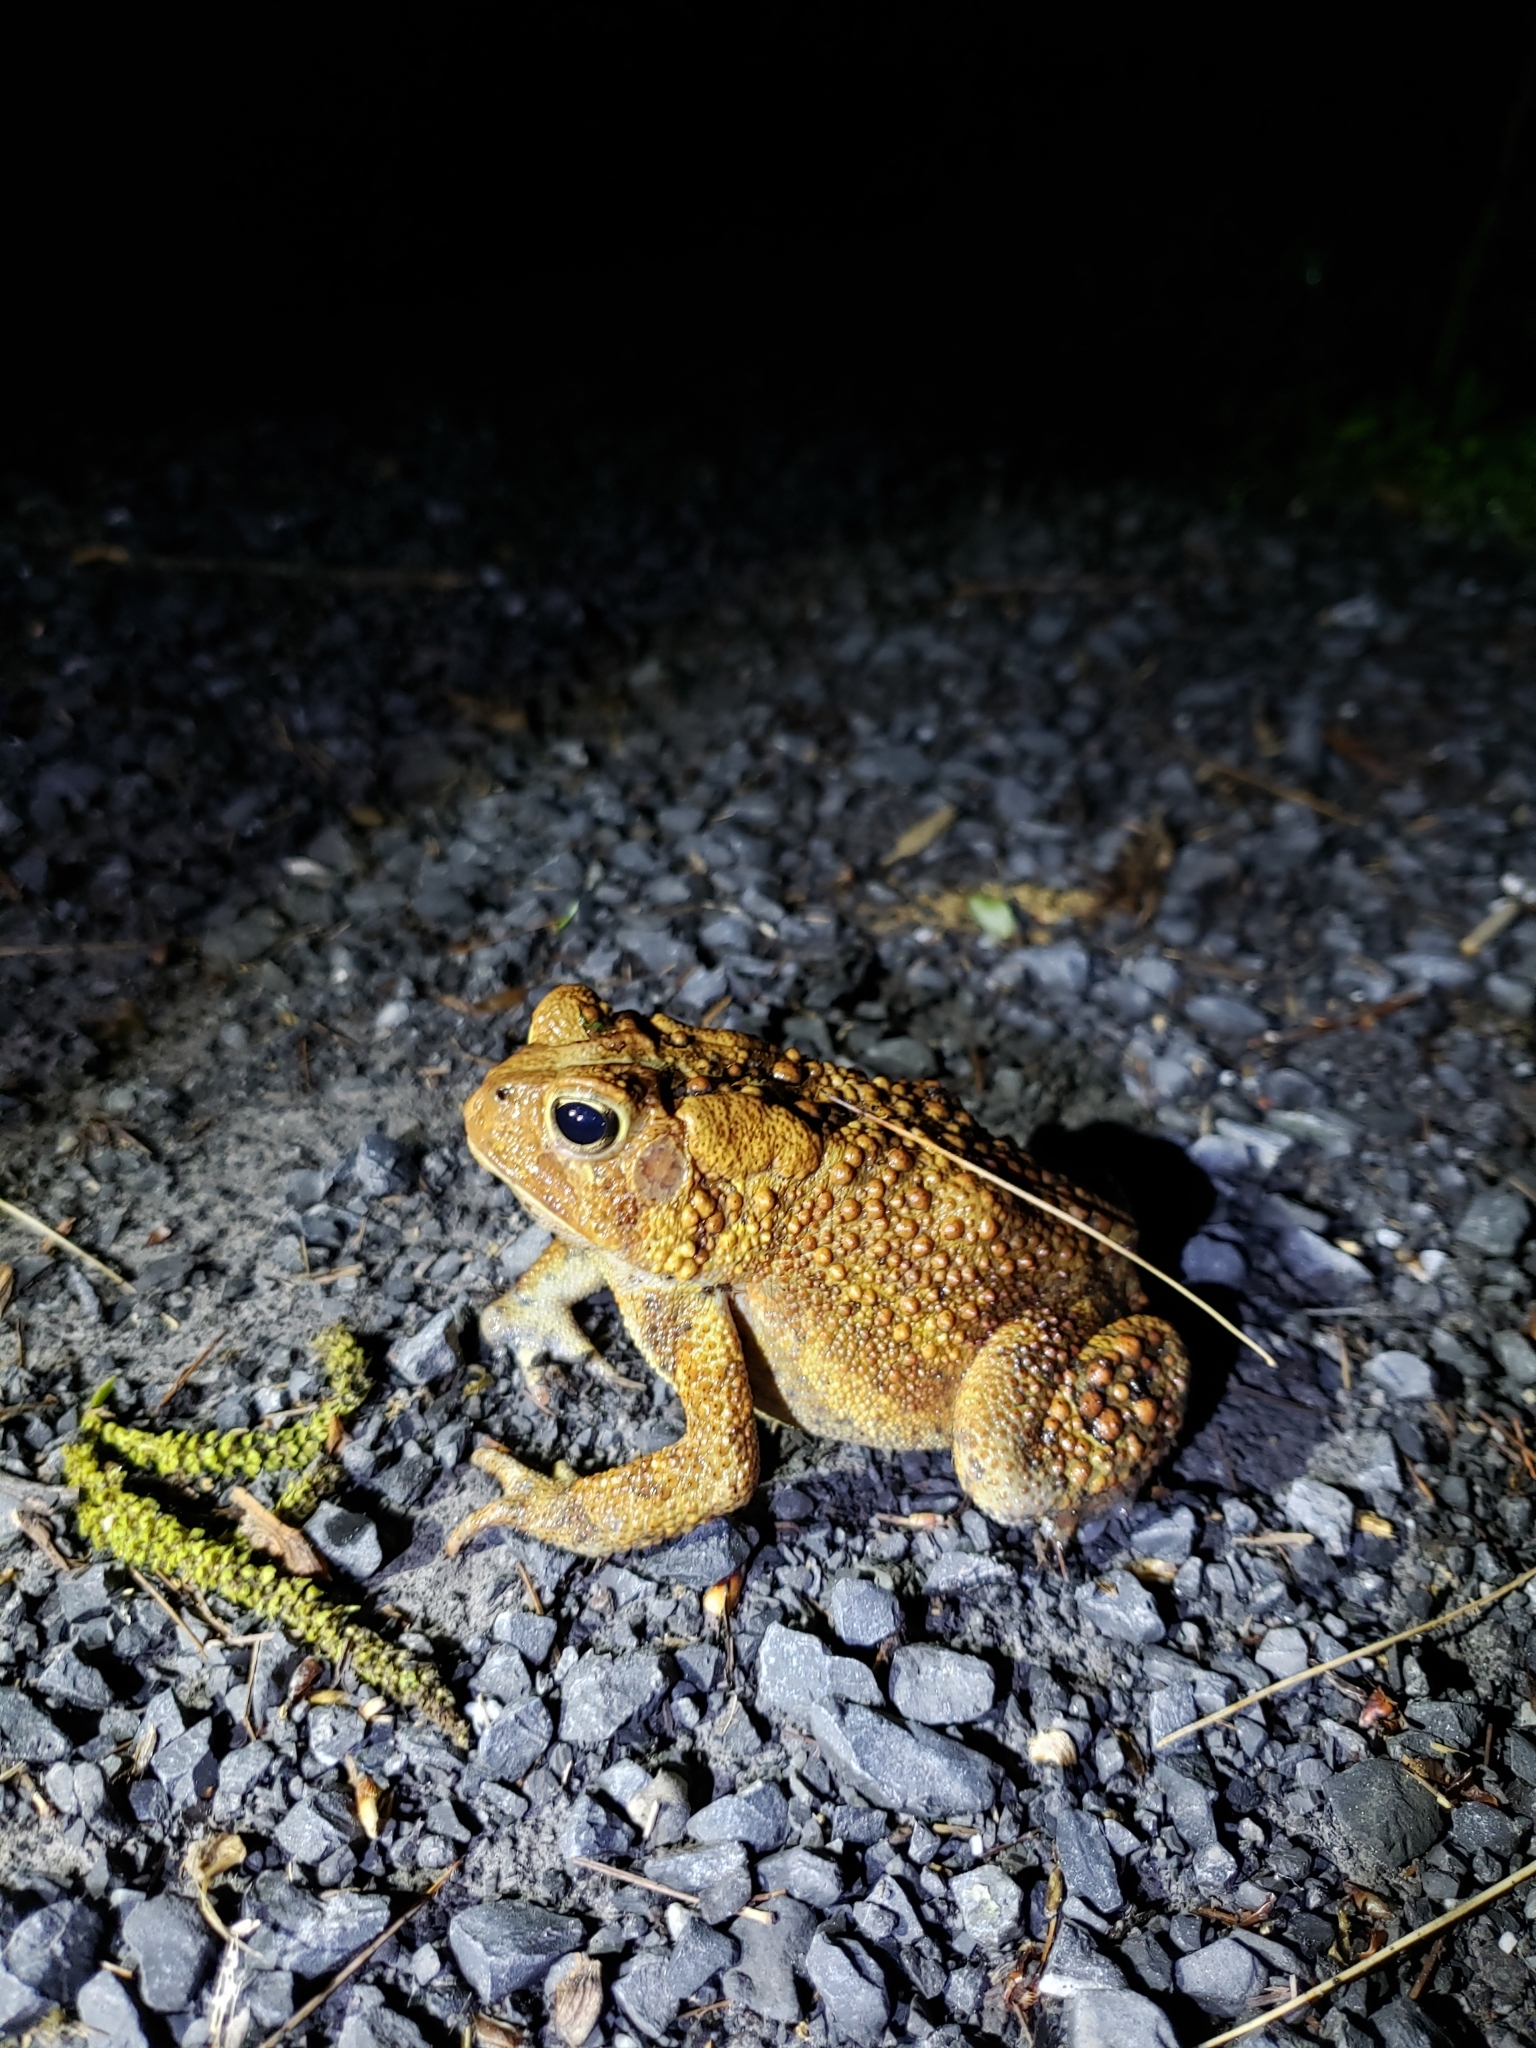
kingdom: Animalia
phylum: Chordata
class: Amphibia
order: Anura
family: Bufonidae
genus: Anaxyrus
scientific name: Anaxyrus americanus
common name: American toad
